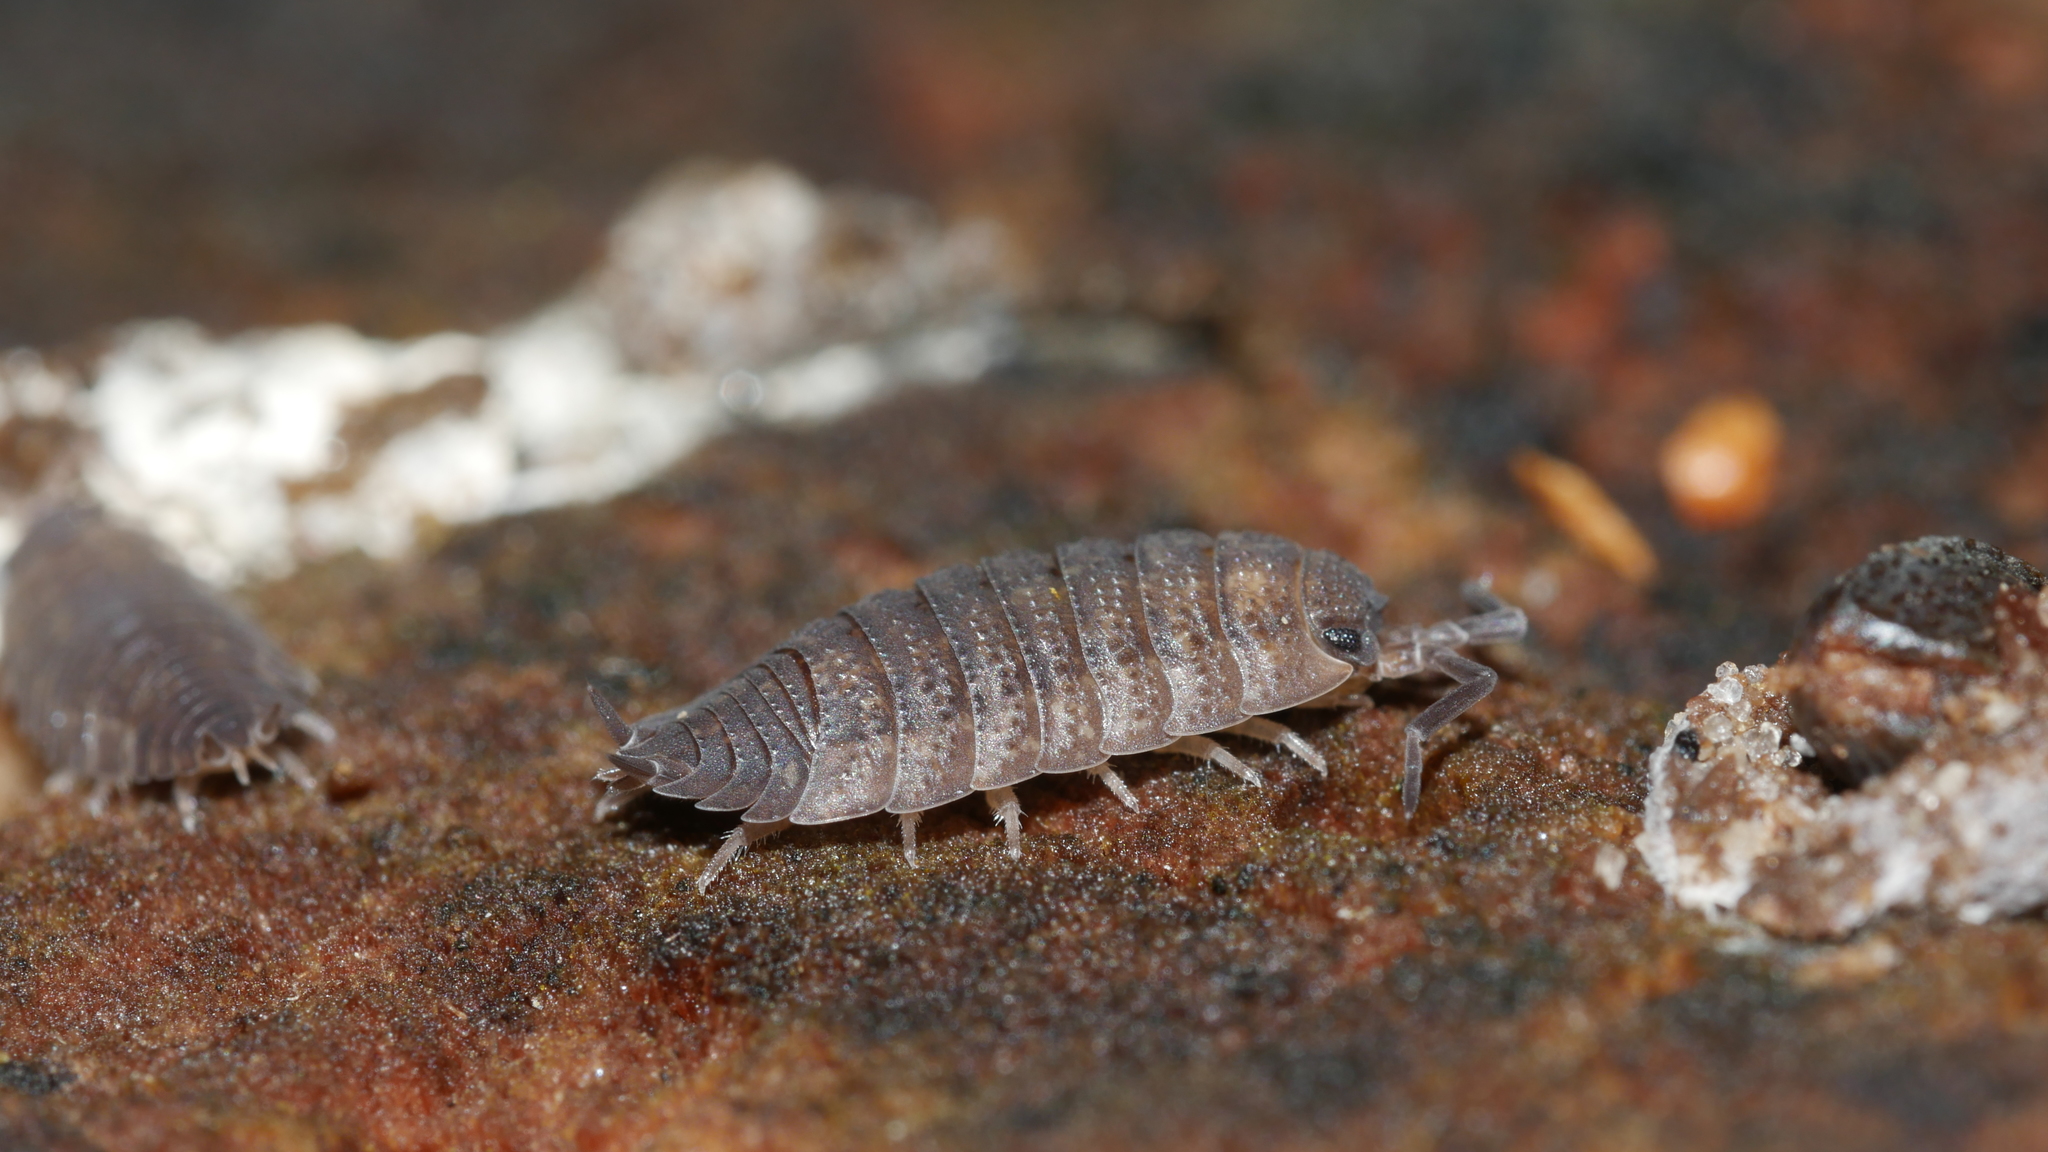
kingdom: Animalia
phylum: Arthropoda
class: Malacostraca
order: Isopoda
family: Porcellionidae
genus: Porcellio
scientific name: Porcellio scaber
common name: Common rough woodlouse
